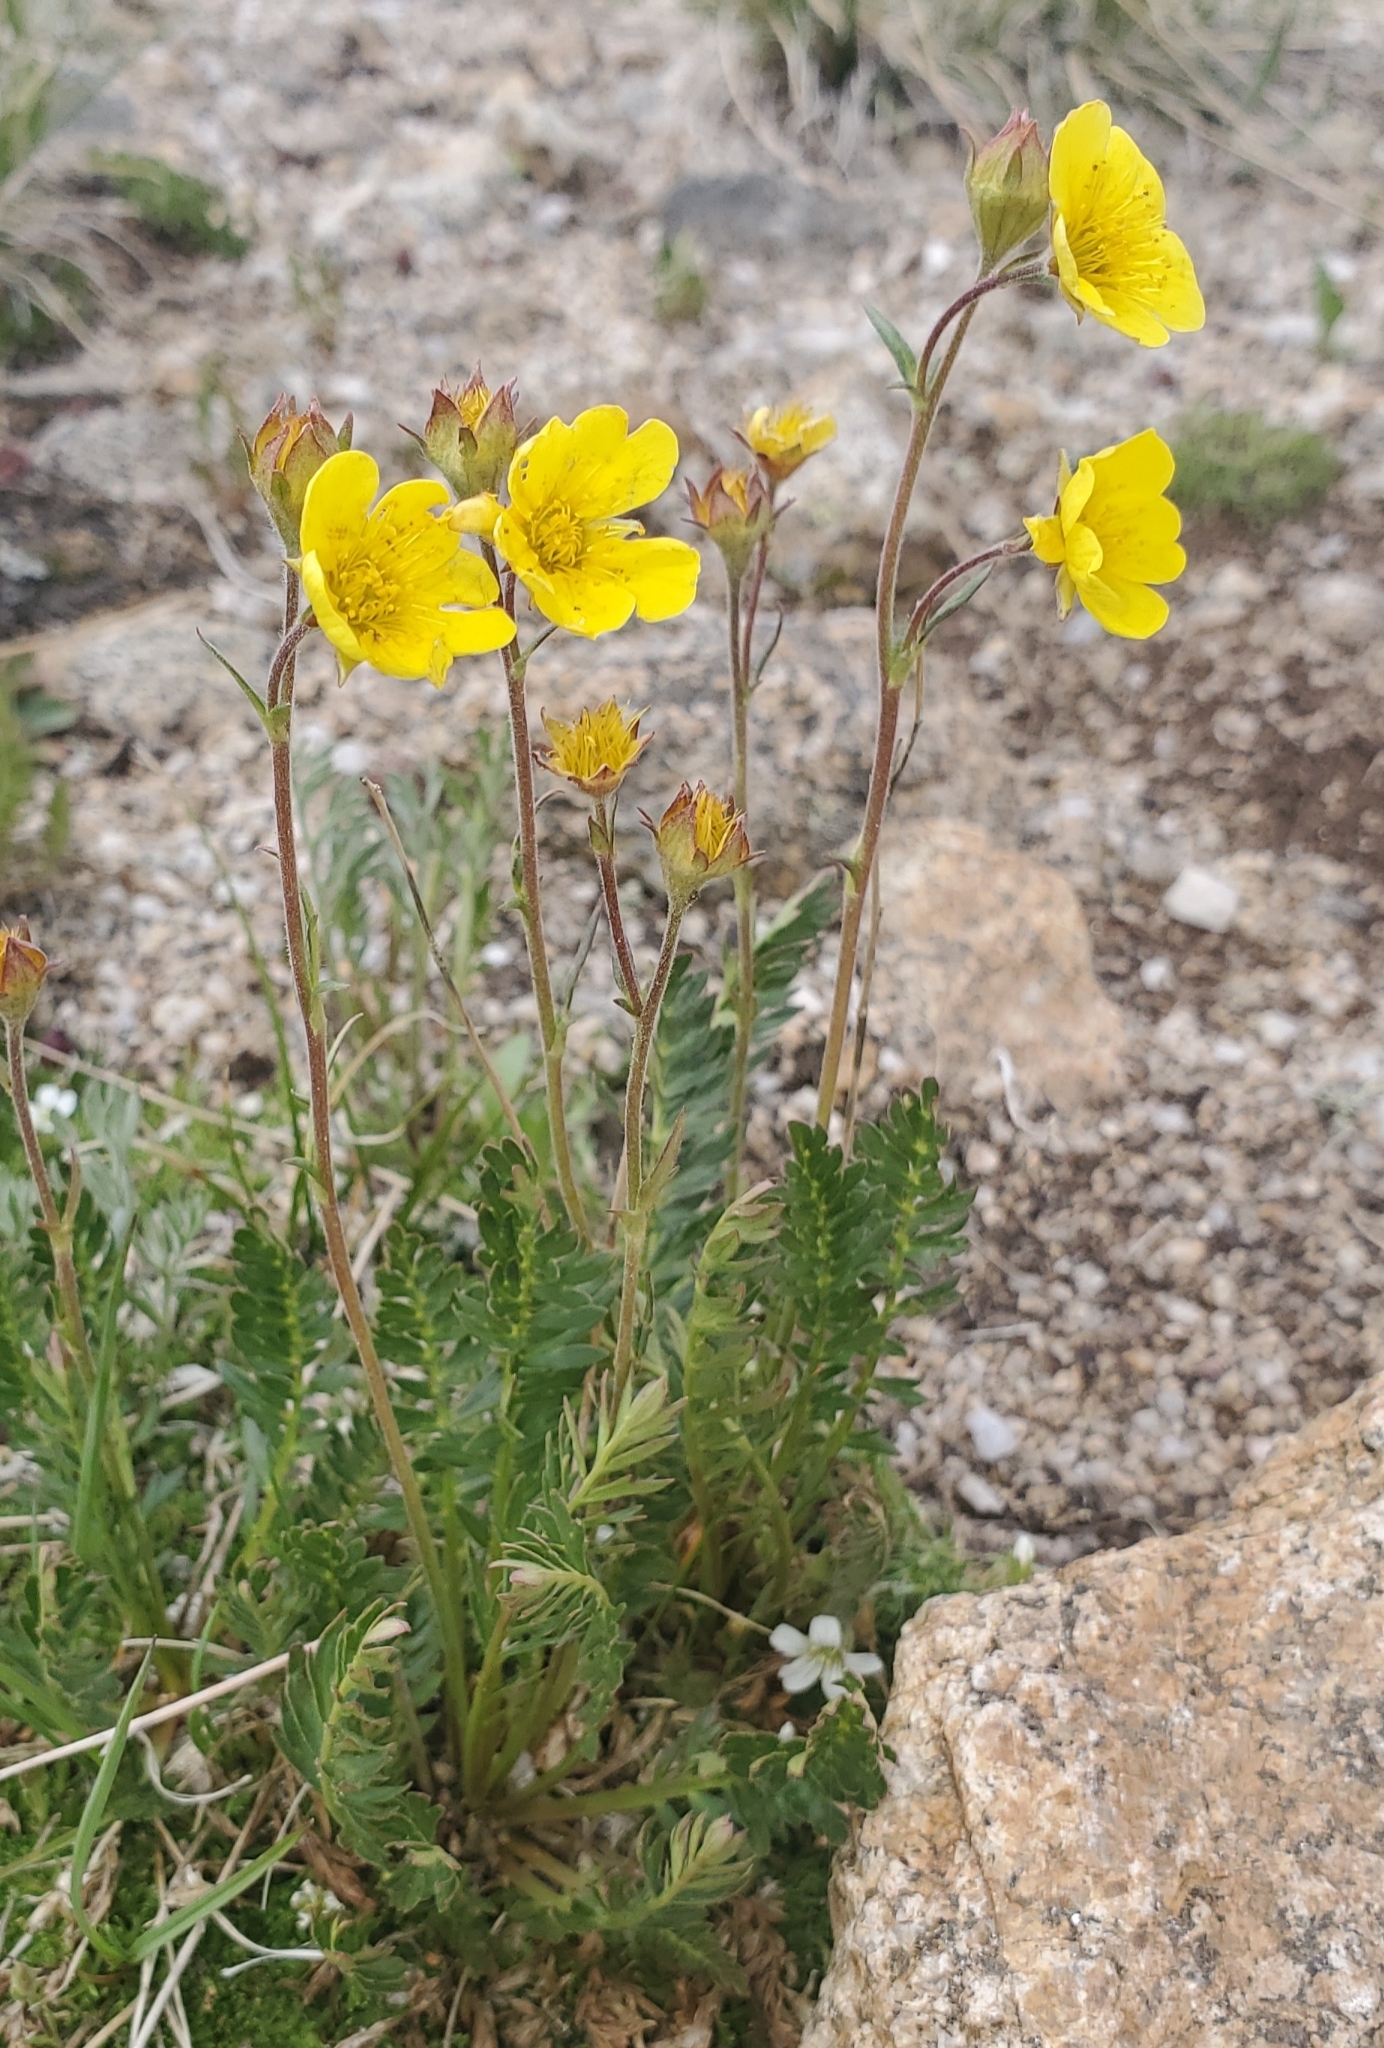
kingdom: Plantae
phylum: Tracheophyta
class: Magnoliopsida
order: Rosales
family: Rosaceae
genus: Geum
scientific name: Geum rossii
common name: Alpine avens
